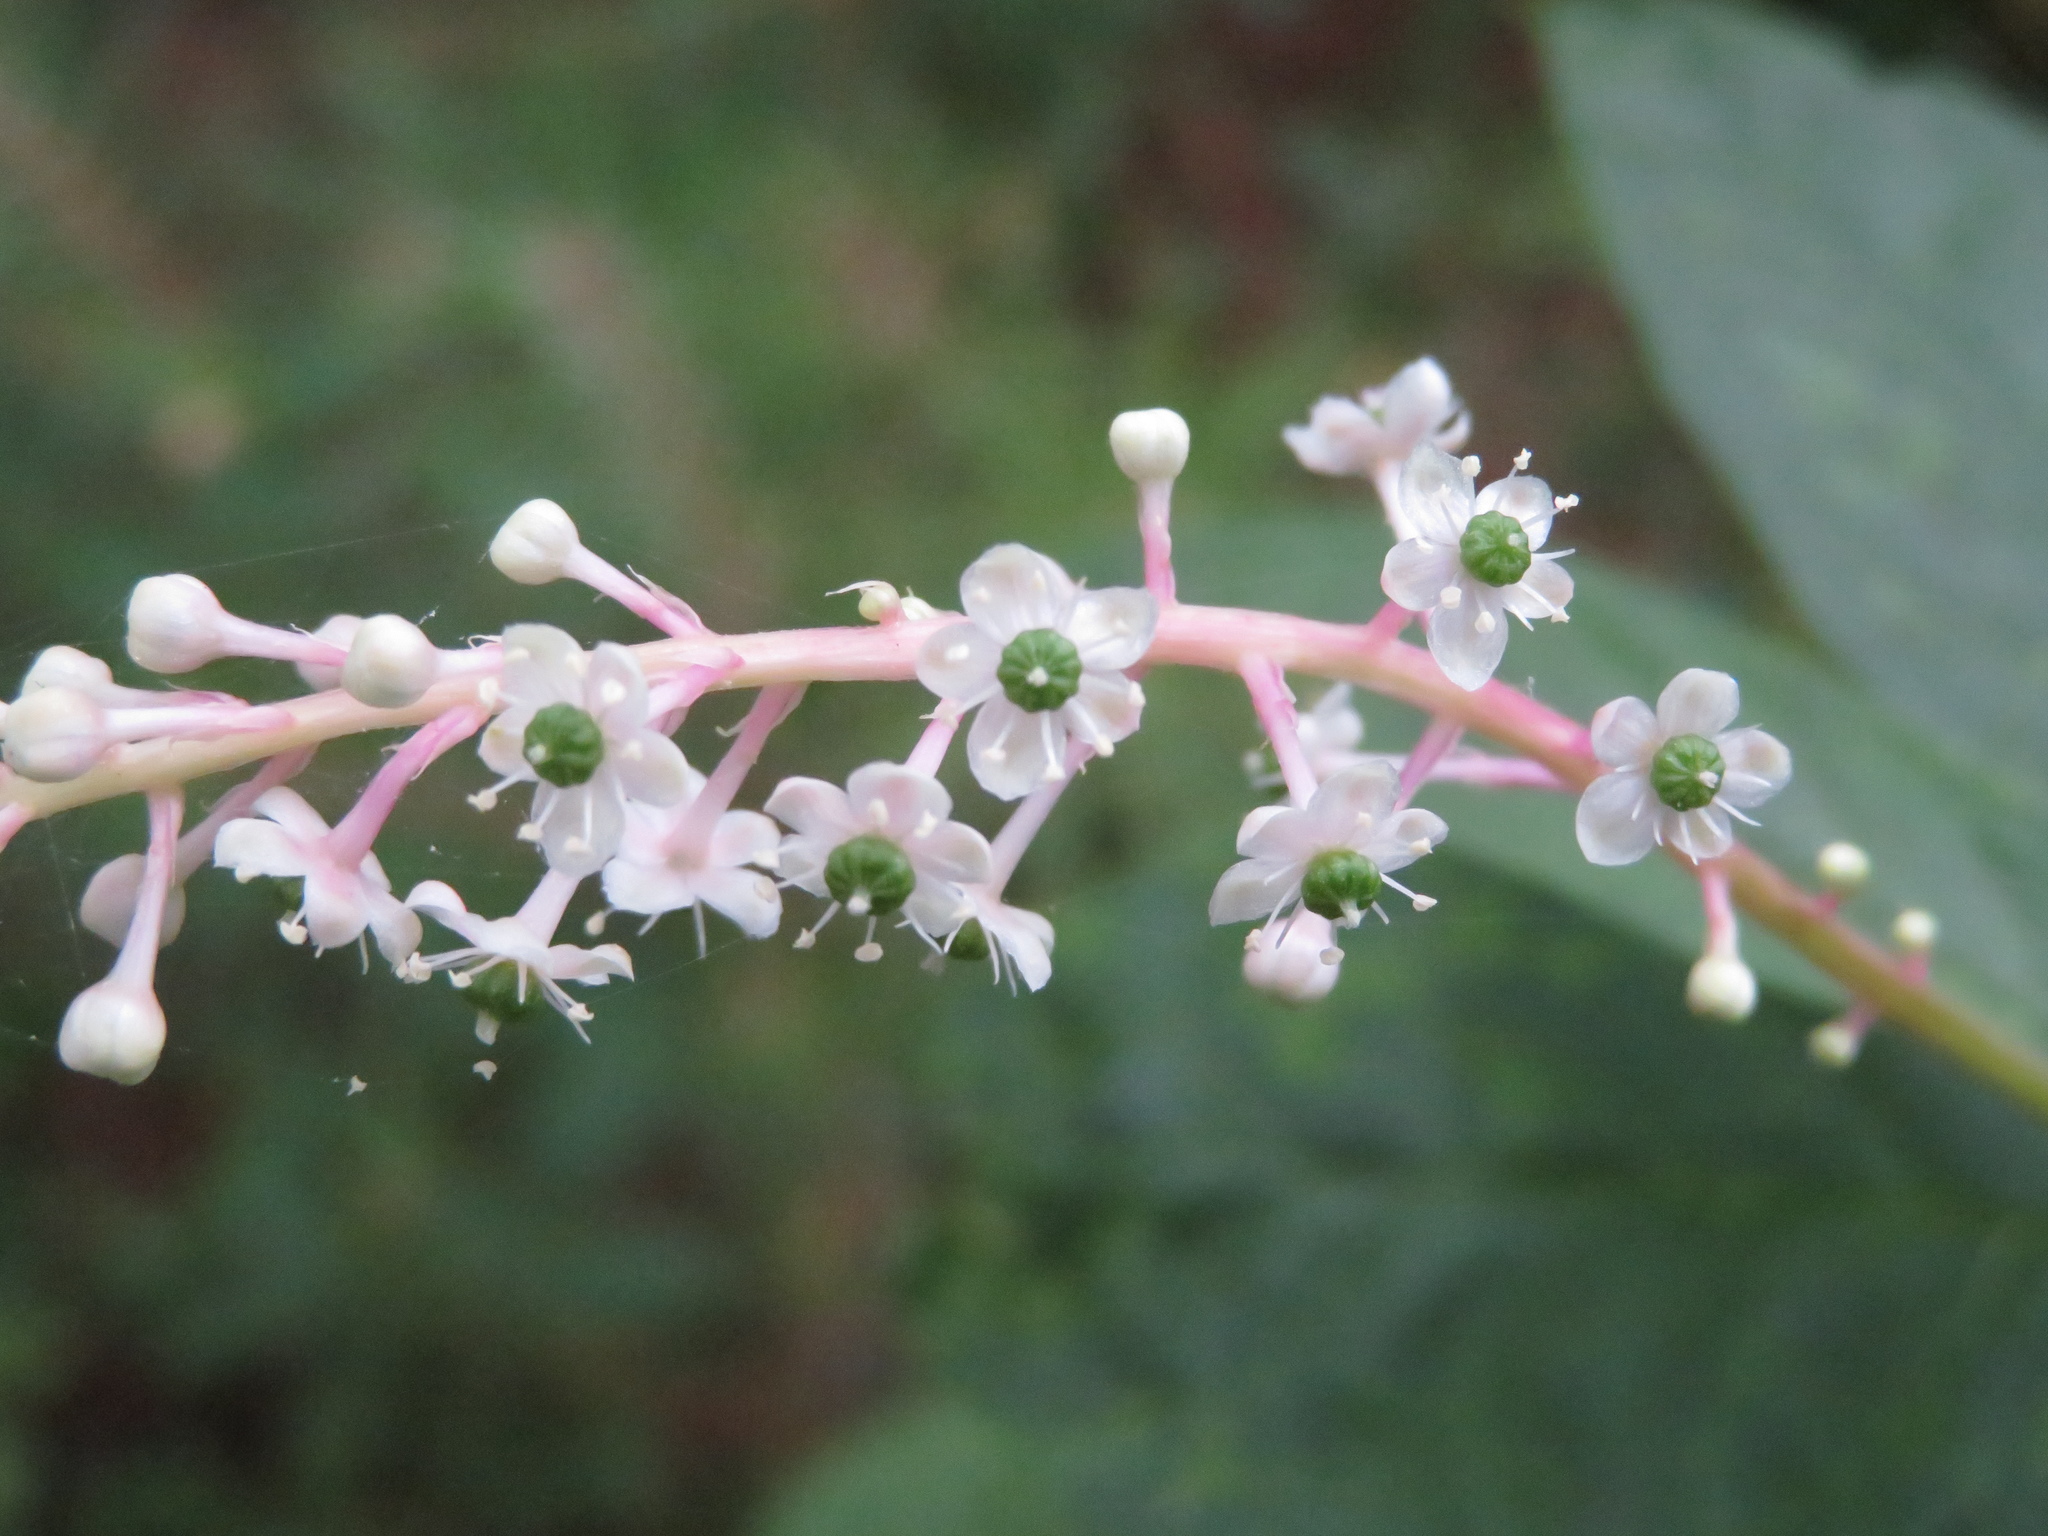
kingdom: Plantae
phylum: Tracheophyta
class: Magnoliopsida
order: Caryophyllales
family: Phytolaccaceae
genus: Phytolacca
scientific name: Phytolacca americana
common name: American pokeweed
